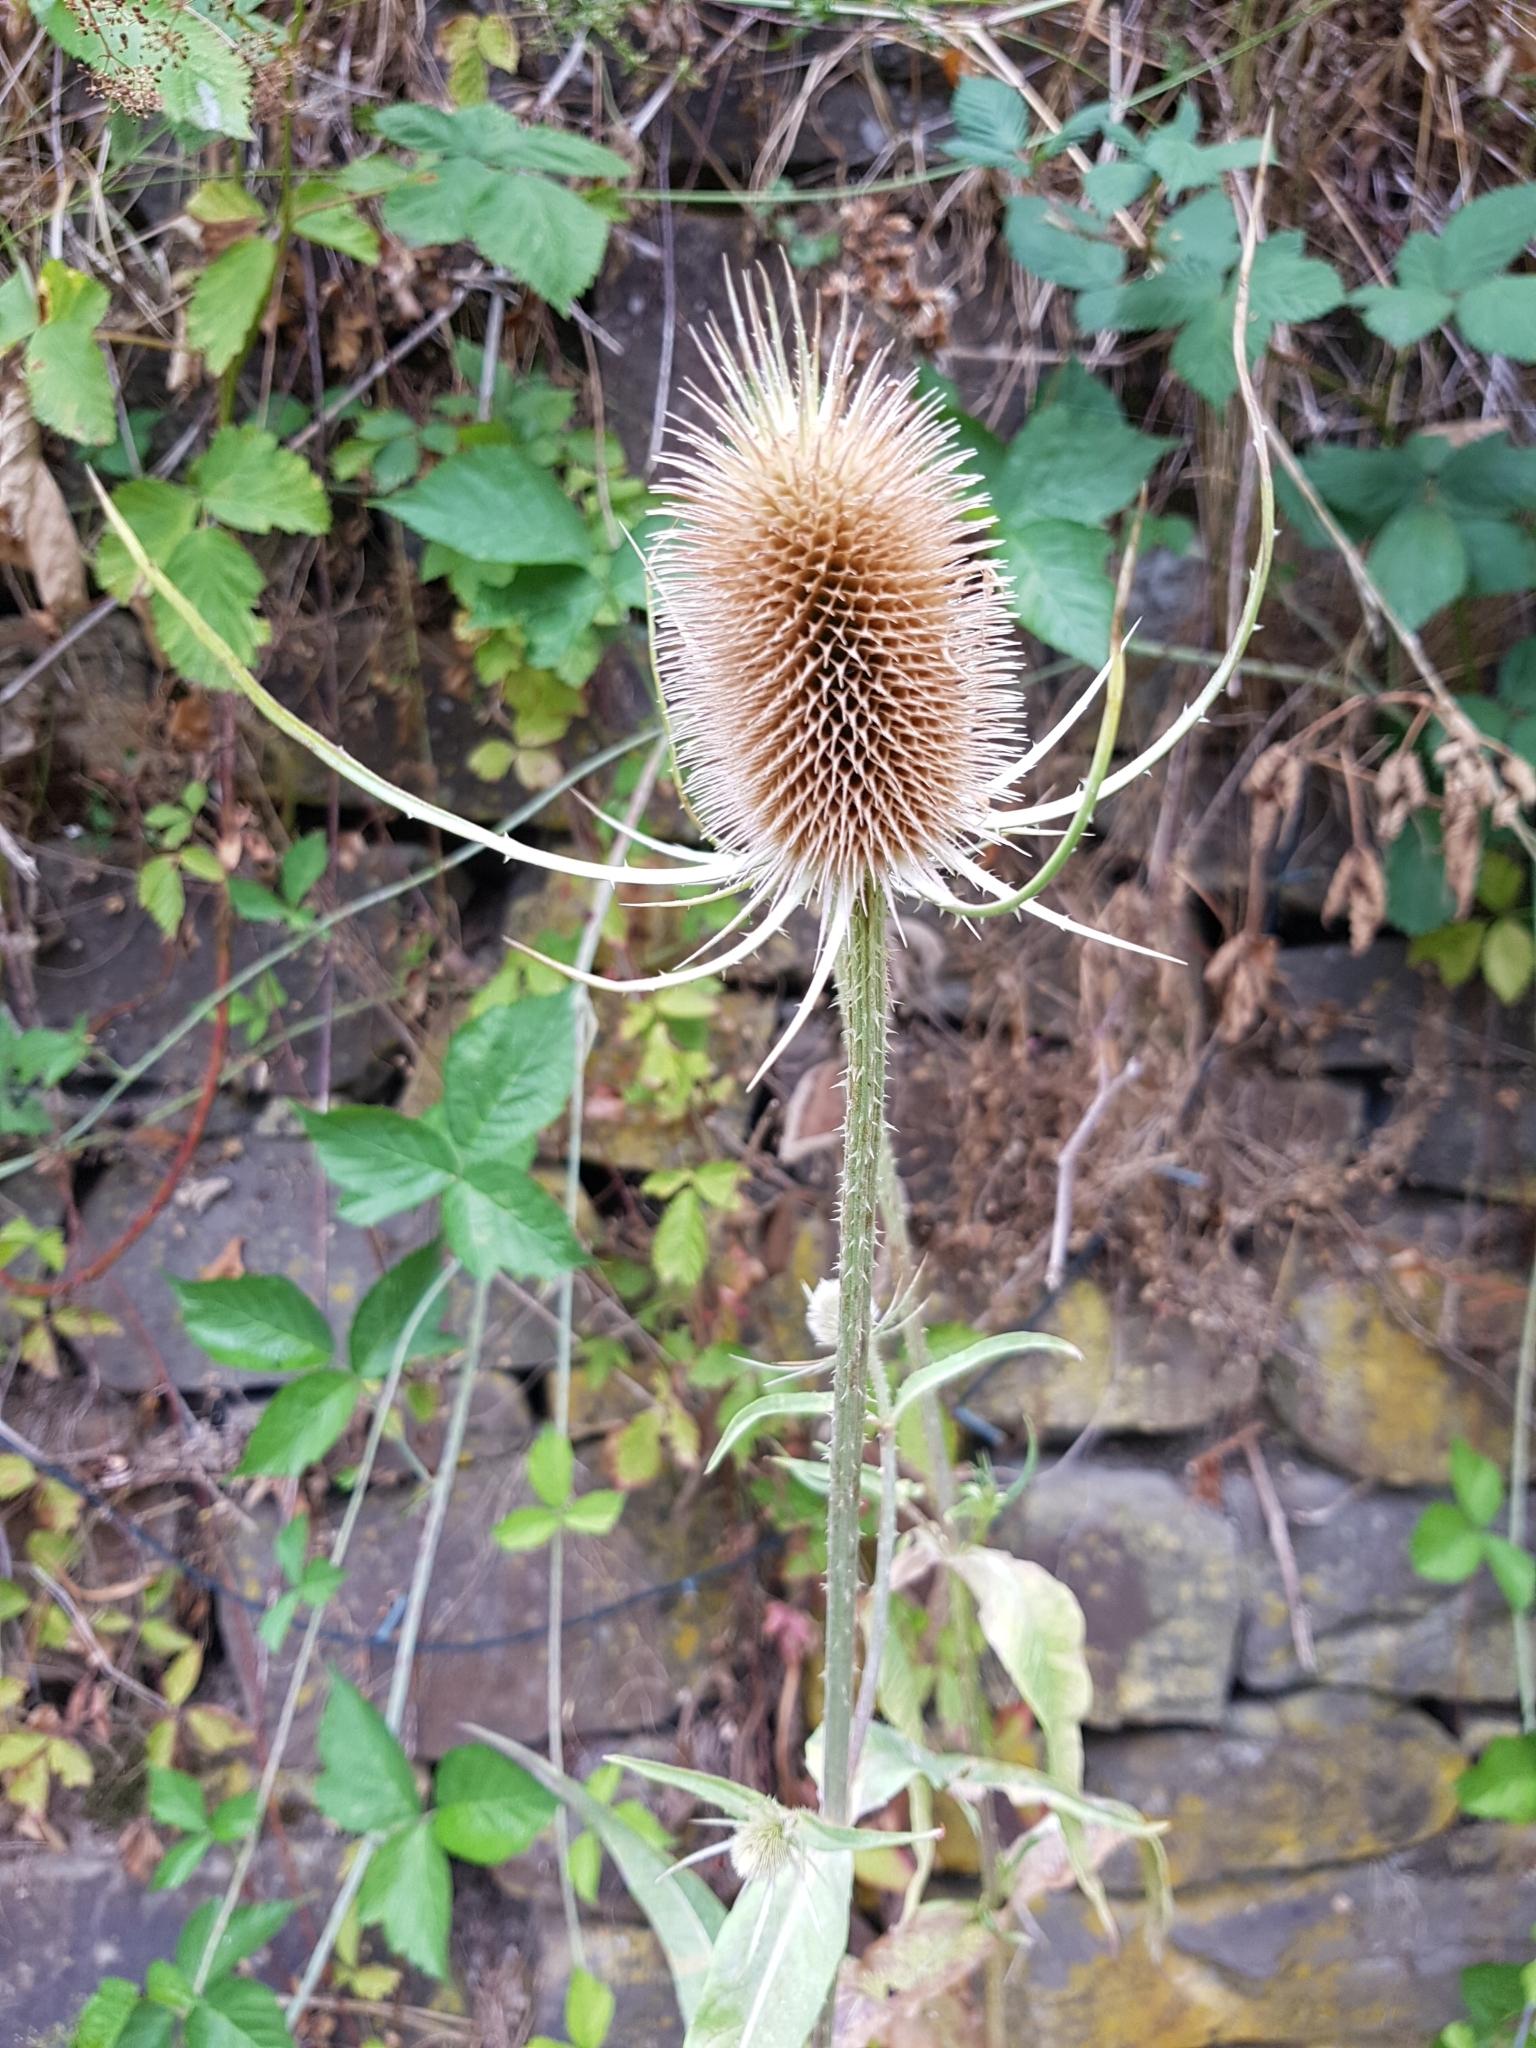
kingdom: Plantae
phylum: Tracheophyta
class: Magnoliopsida
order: Dipsacales
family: Caprifoliaceae
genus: Dipsacus
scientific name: Dipsacus fullonum
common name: Teasel
